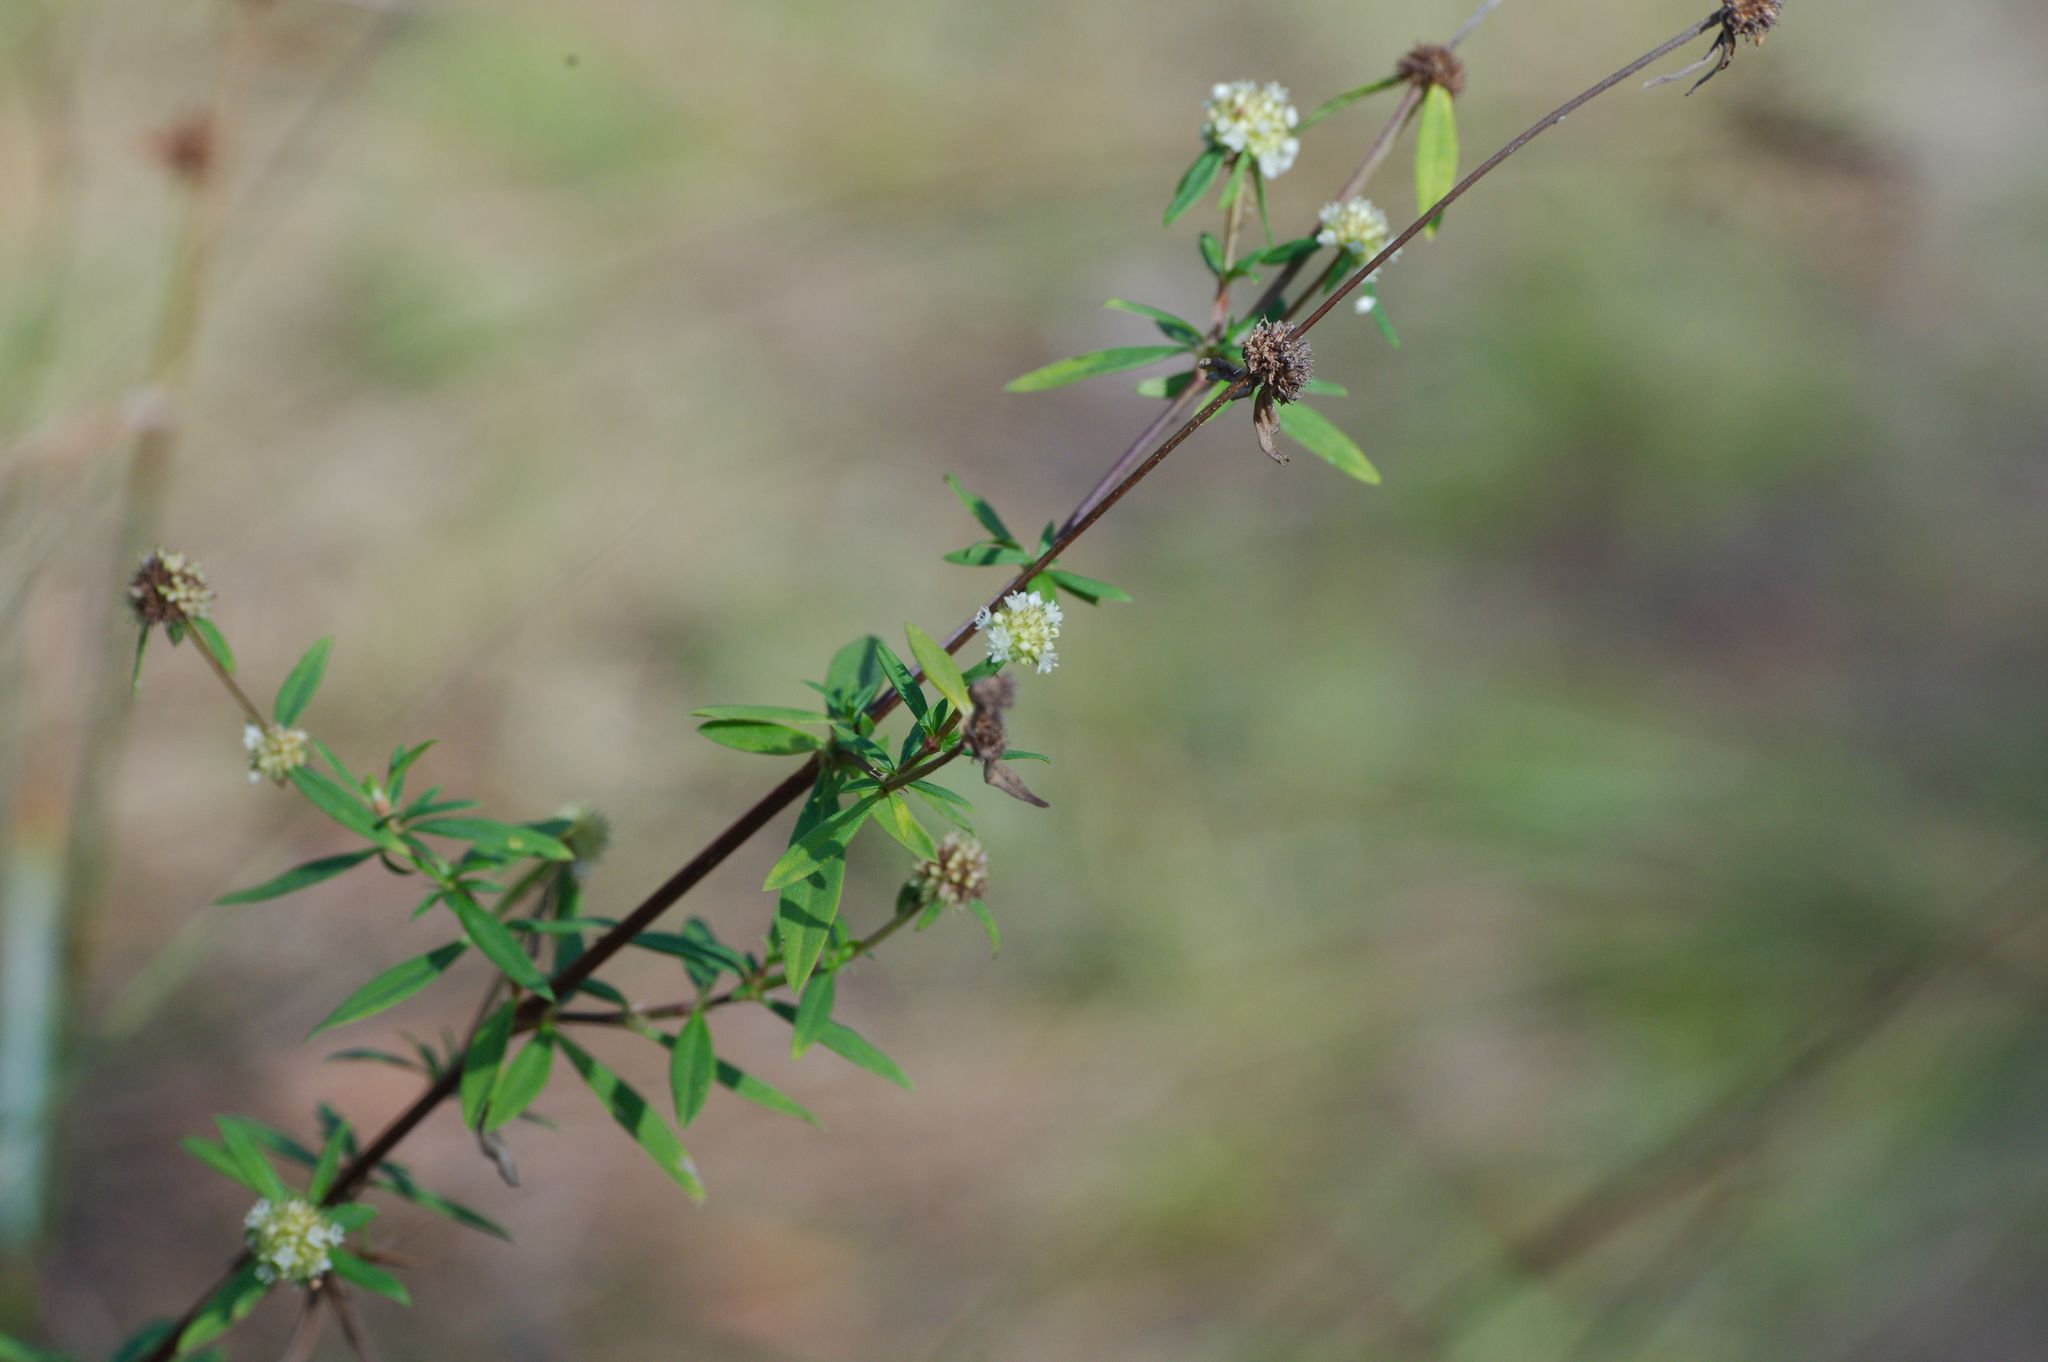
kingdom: Plantae
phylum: Tracheophyta
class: Magnoliopsida
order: Gentianales
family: Rubiaceae
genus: Spermacoce
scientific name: Spermacoce verticillata
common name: Shrubby false buttonweed
